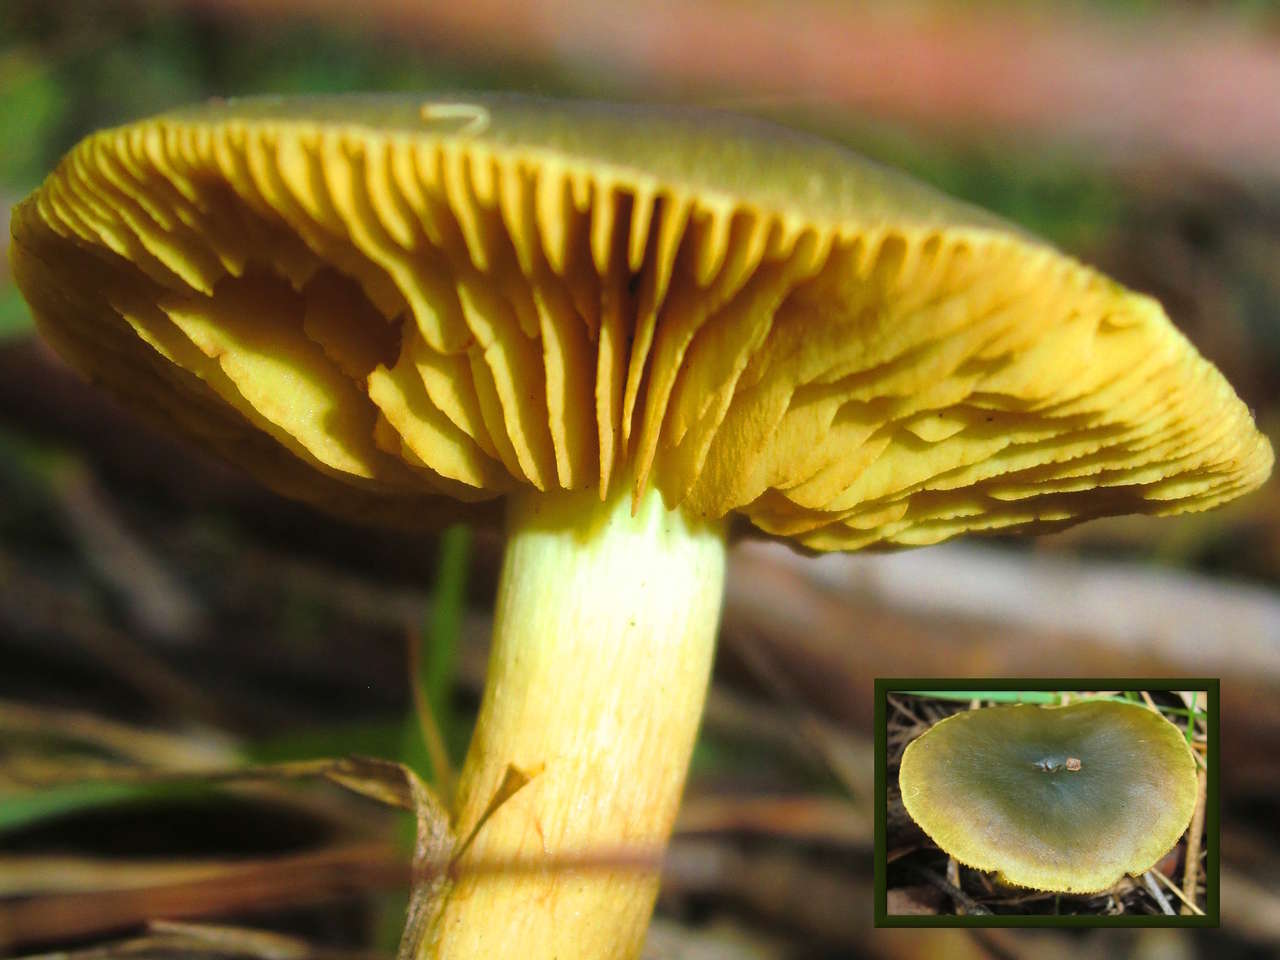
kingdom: Fungi
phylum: Basidiomycota
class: Agaricomycetes
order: Agaricales
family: Cortinariaceae
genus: Cortinarius
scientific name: Cortinarius austrovenetus
